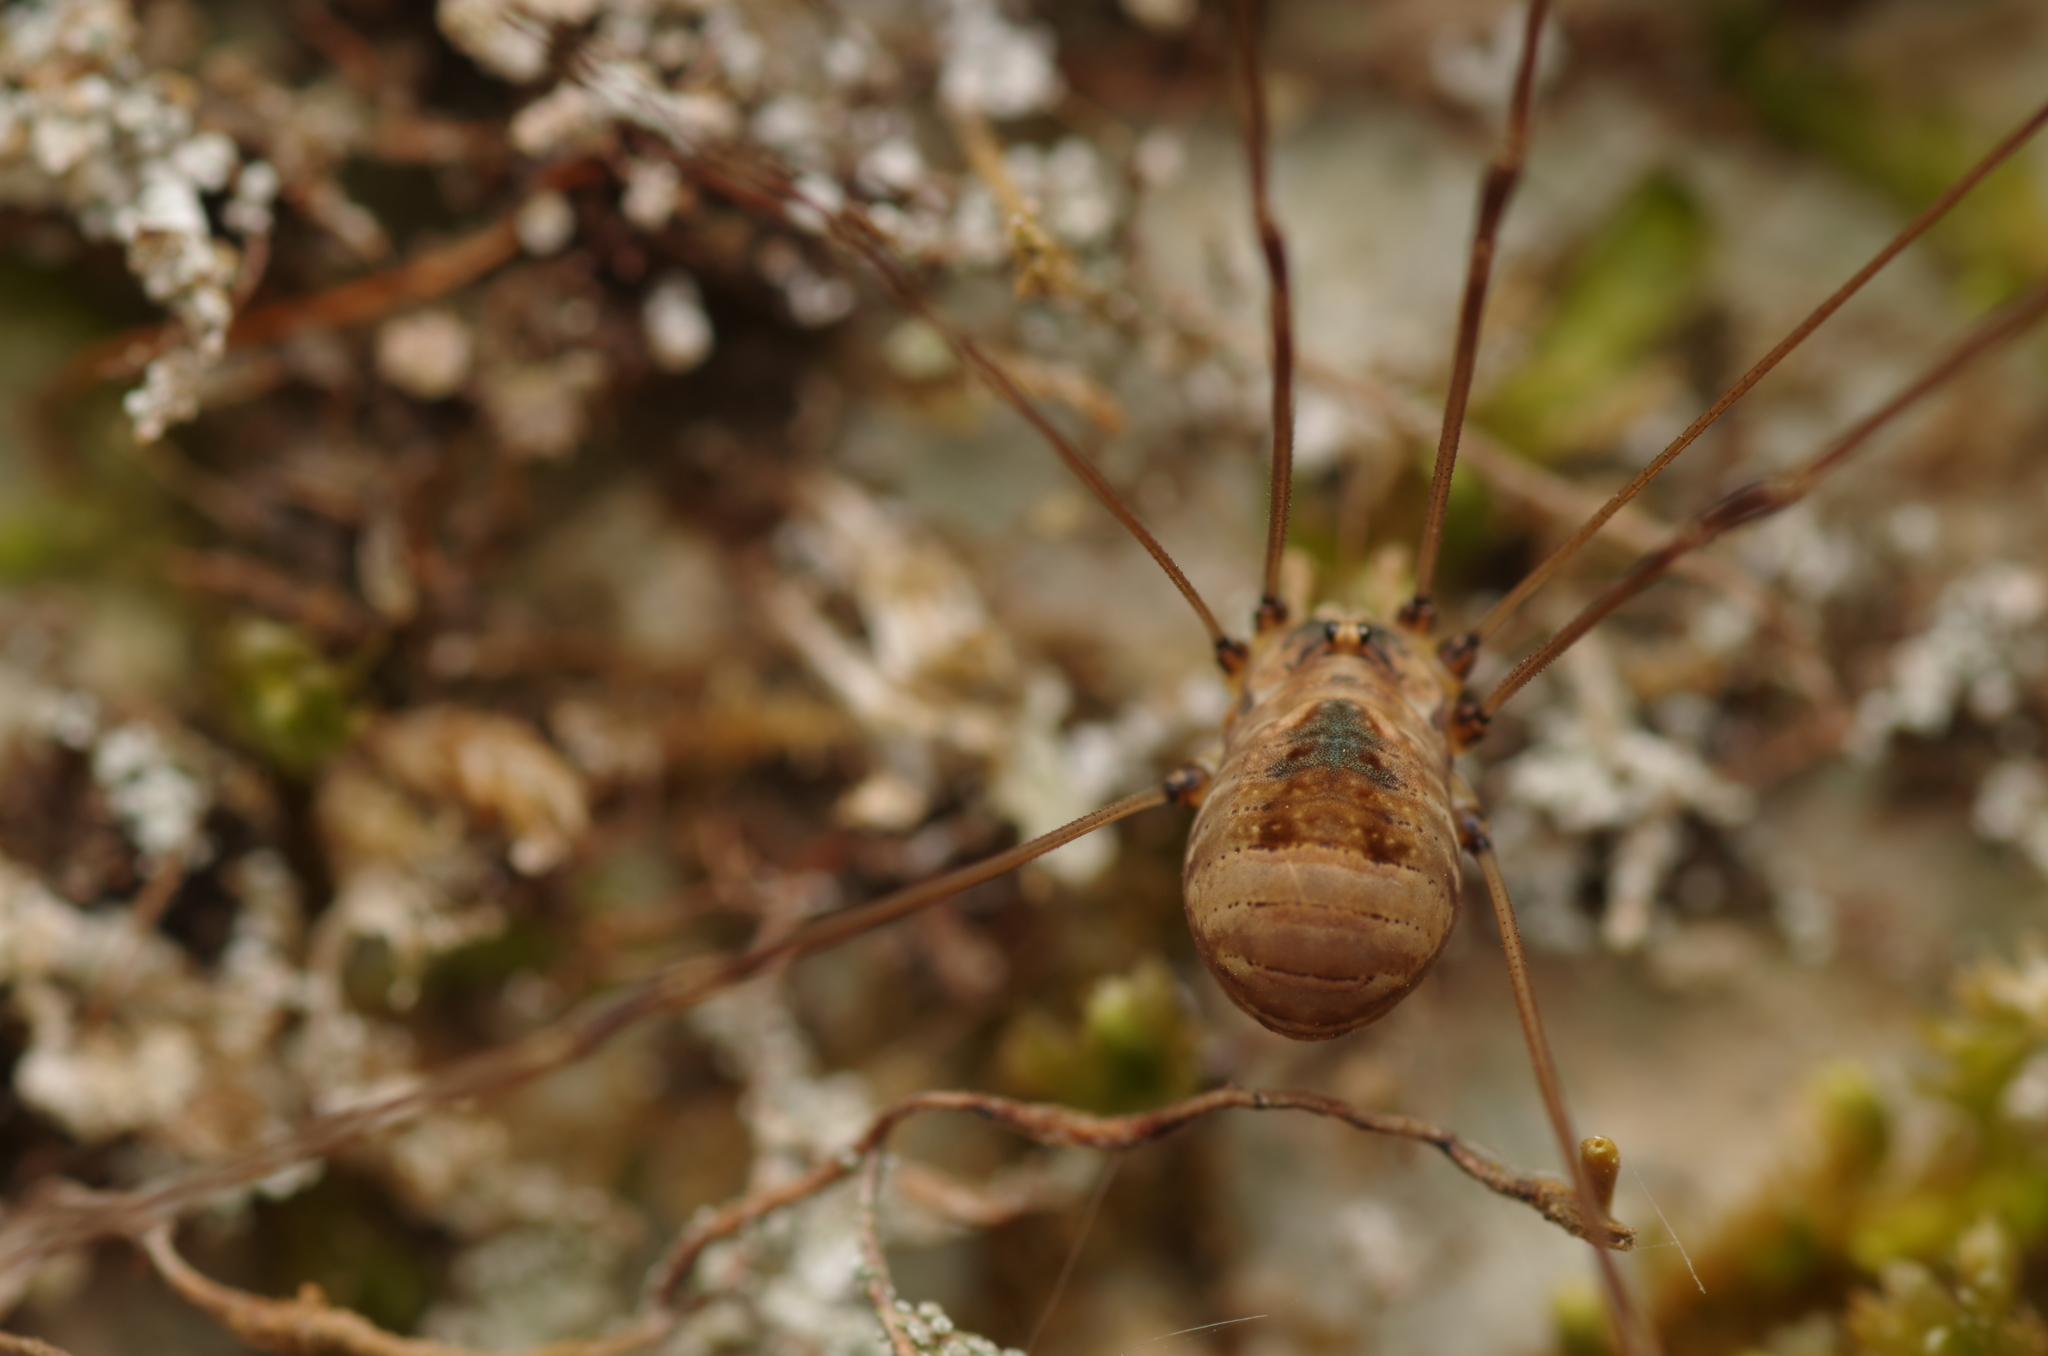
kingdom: Animalia
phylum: Arthropoda
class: Arachnida
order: Opiliones
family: Sclerosomatidae
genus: Leiobunum
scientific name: Leiobunum blackwalli
